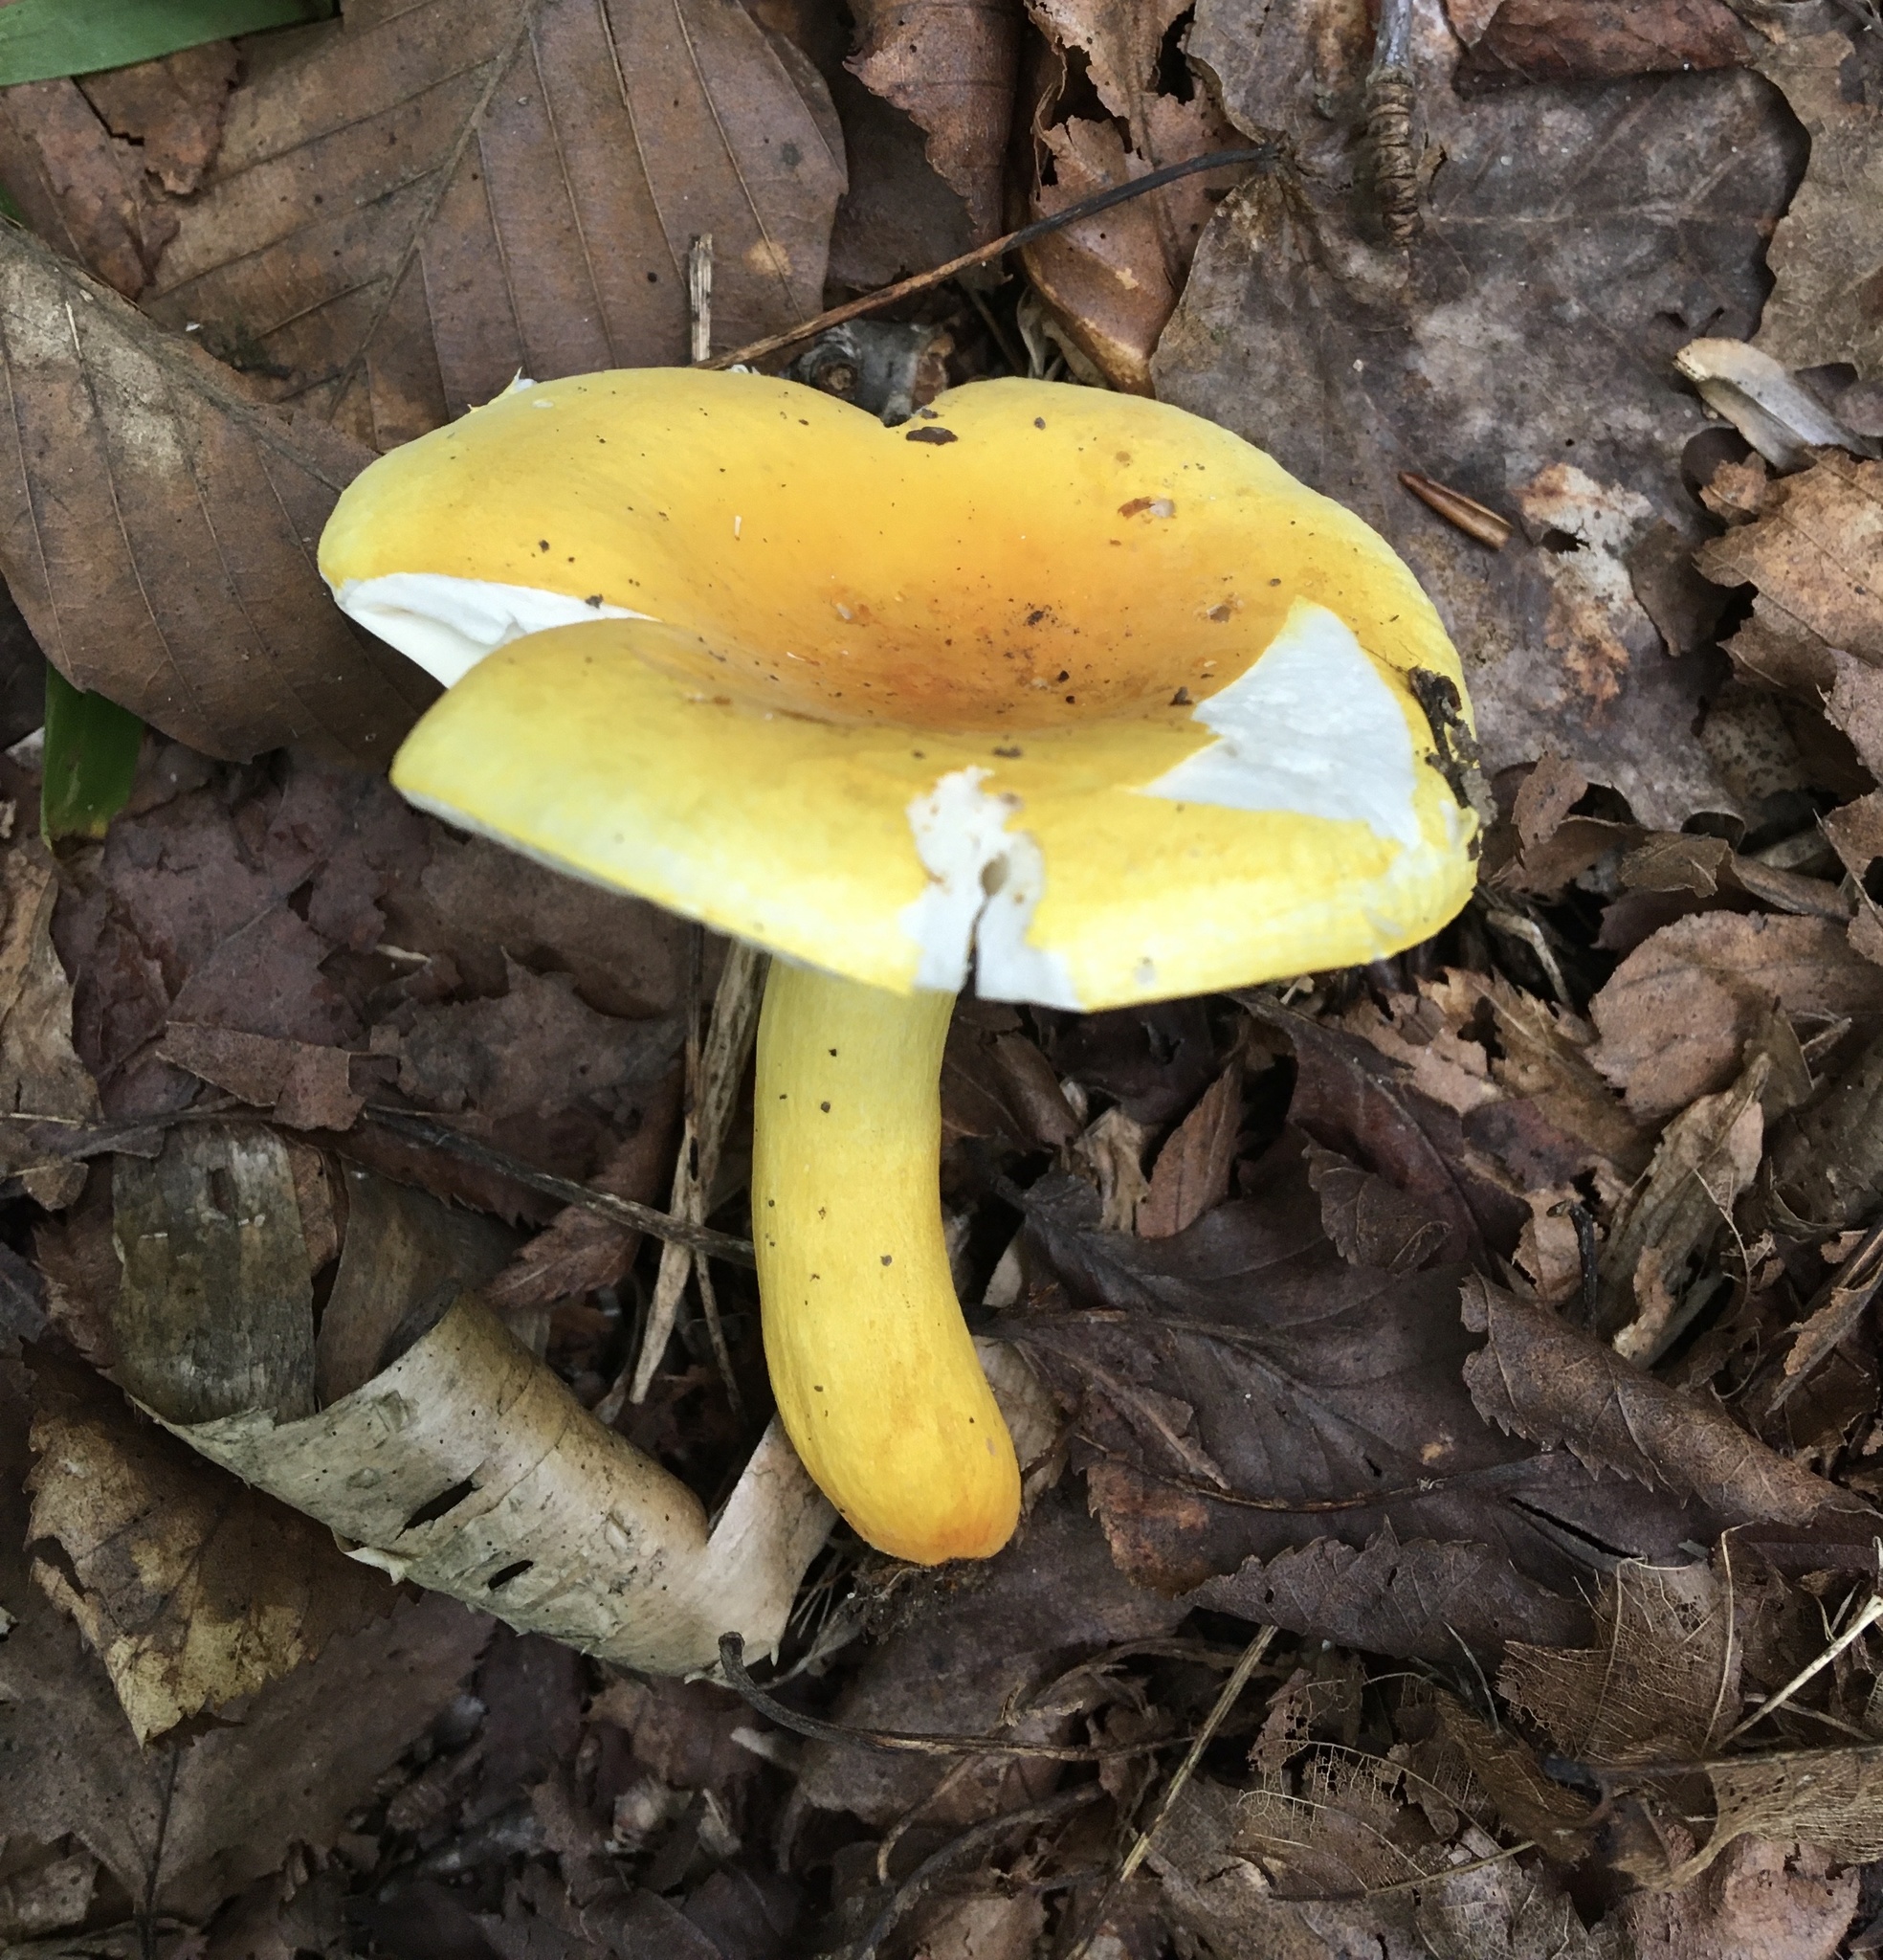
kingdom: Fungi
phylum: Basidiomycota
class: Agaricomycetes
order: Russulales
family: Russulaceae
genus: Russula
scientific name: Russula flavida
